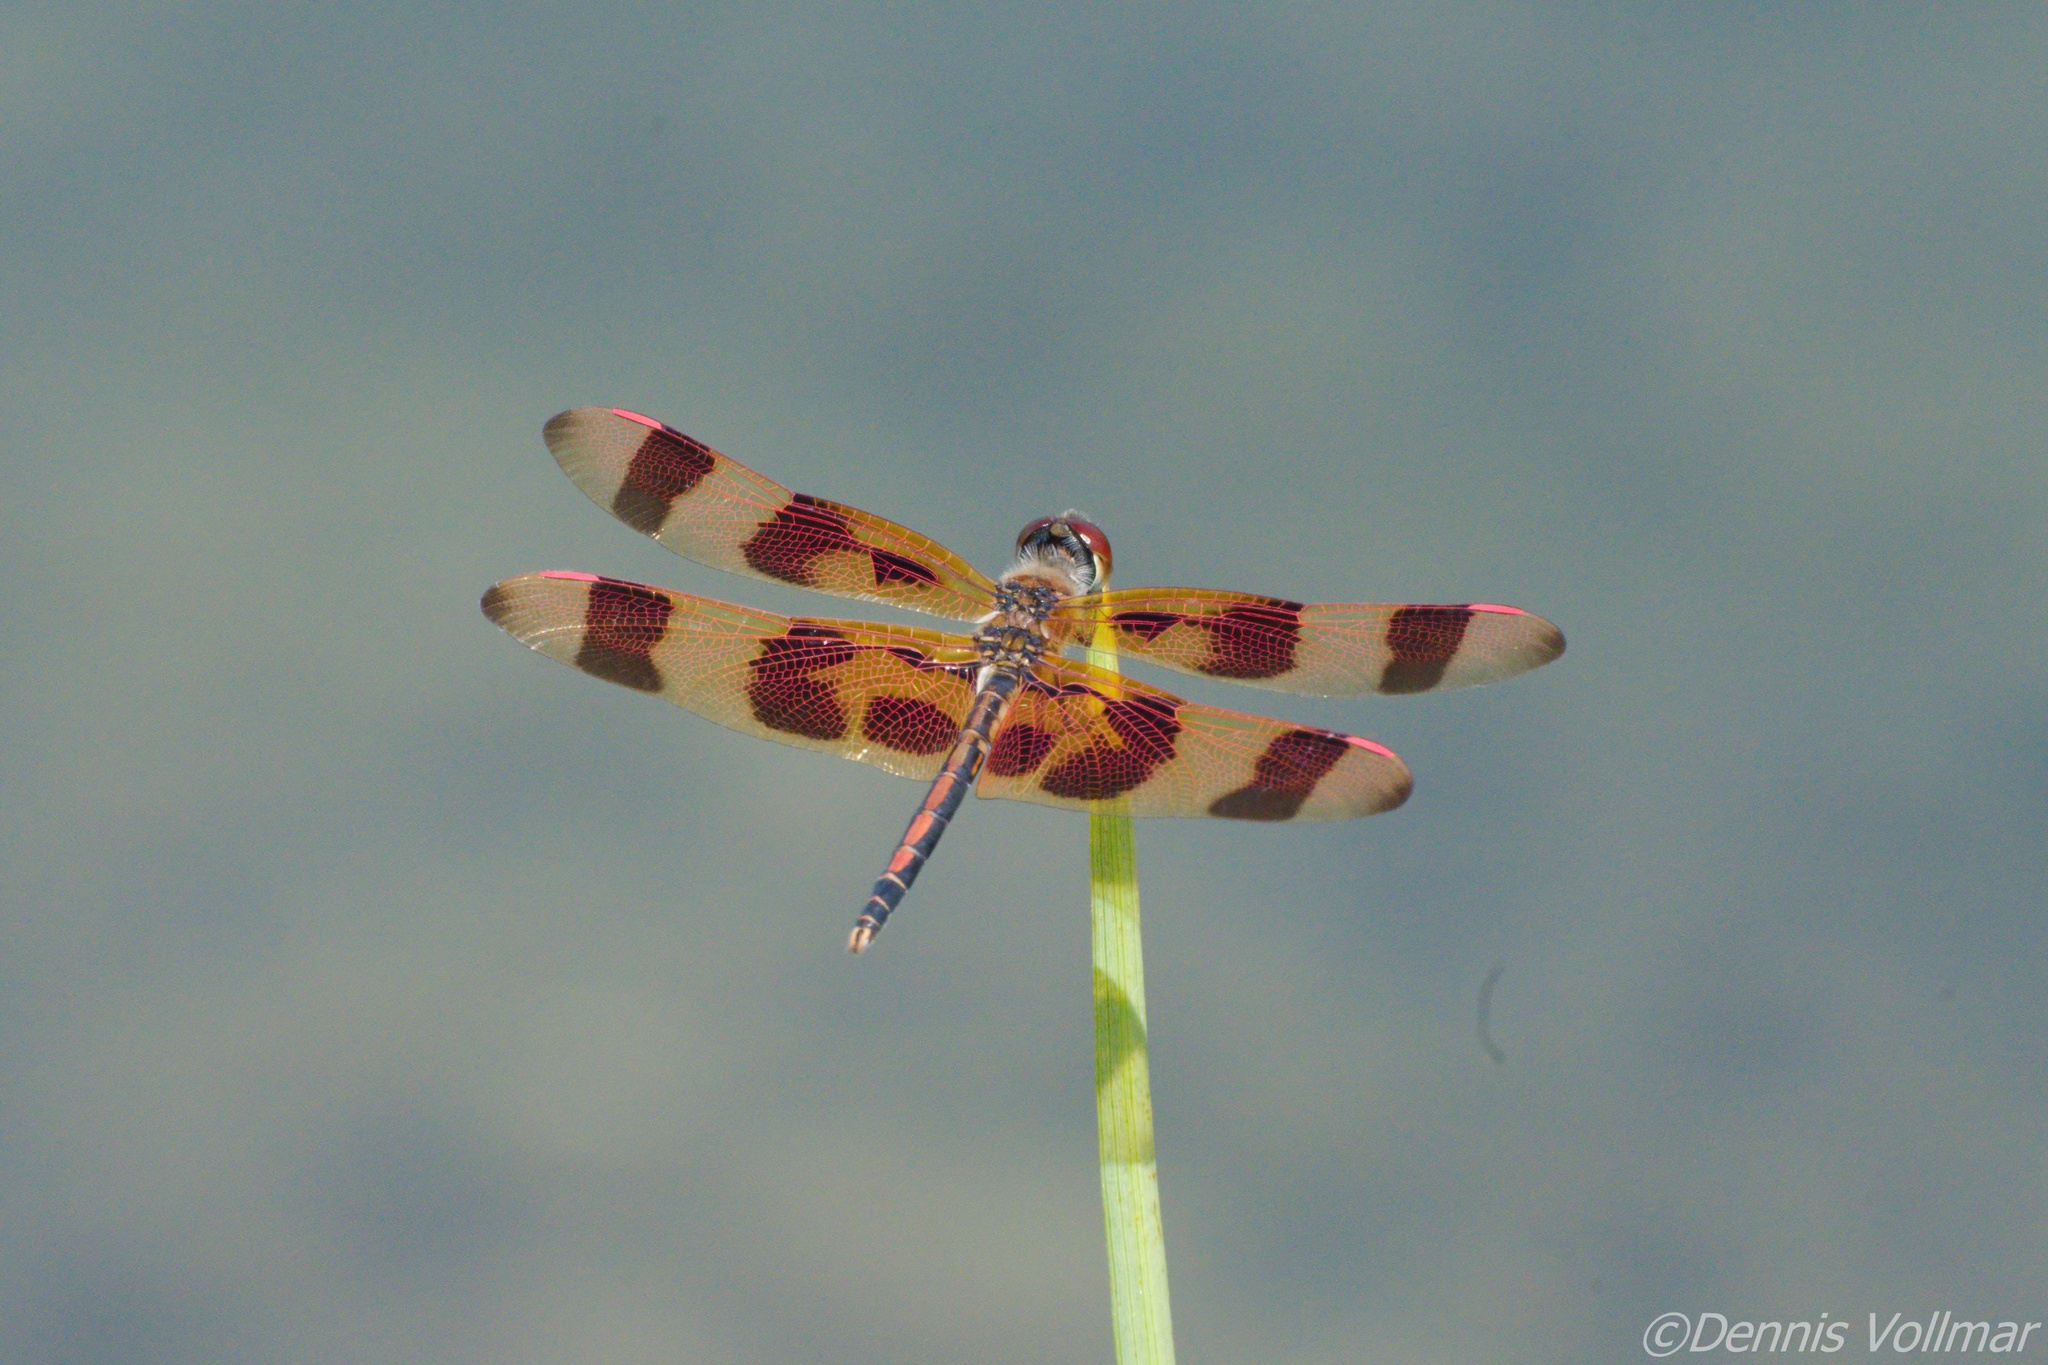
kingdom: Animalia
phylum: Arthropoda
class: Insecta
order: Odonata
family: Libellulidae
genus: Celithemis
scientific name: Celithemis eponina
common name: Halloween pennant
